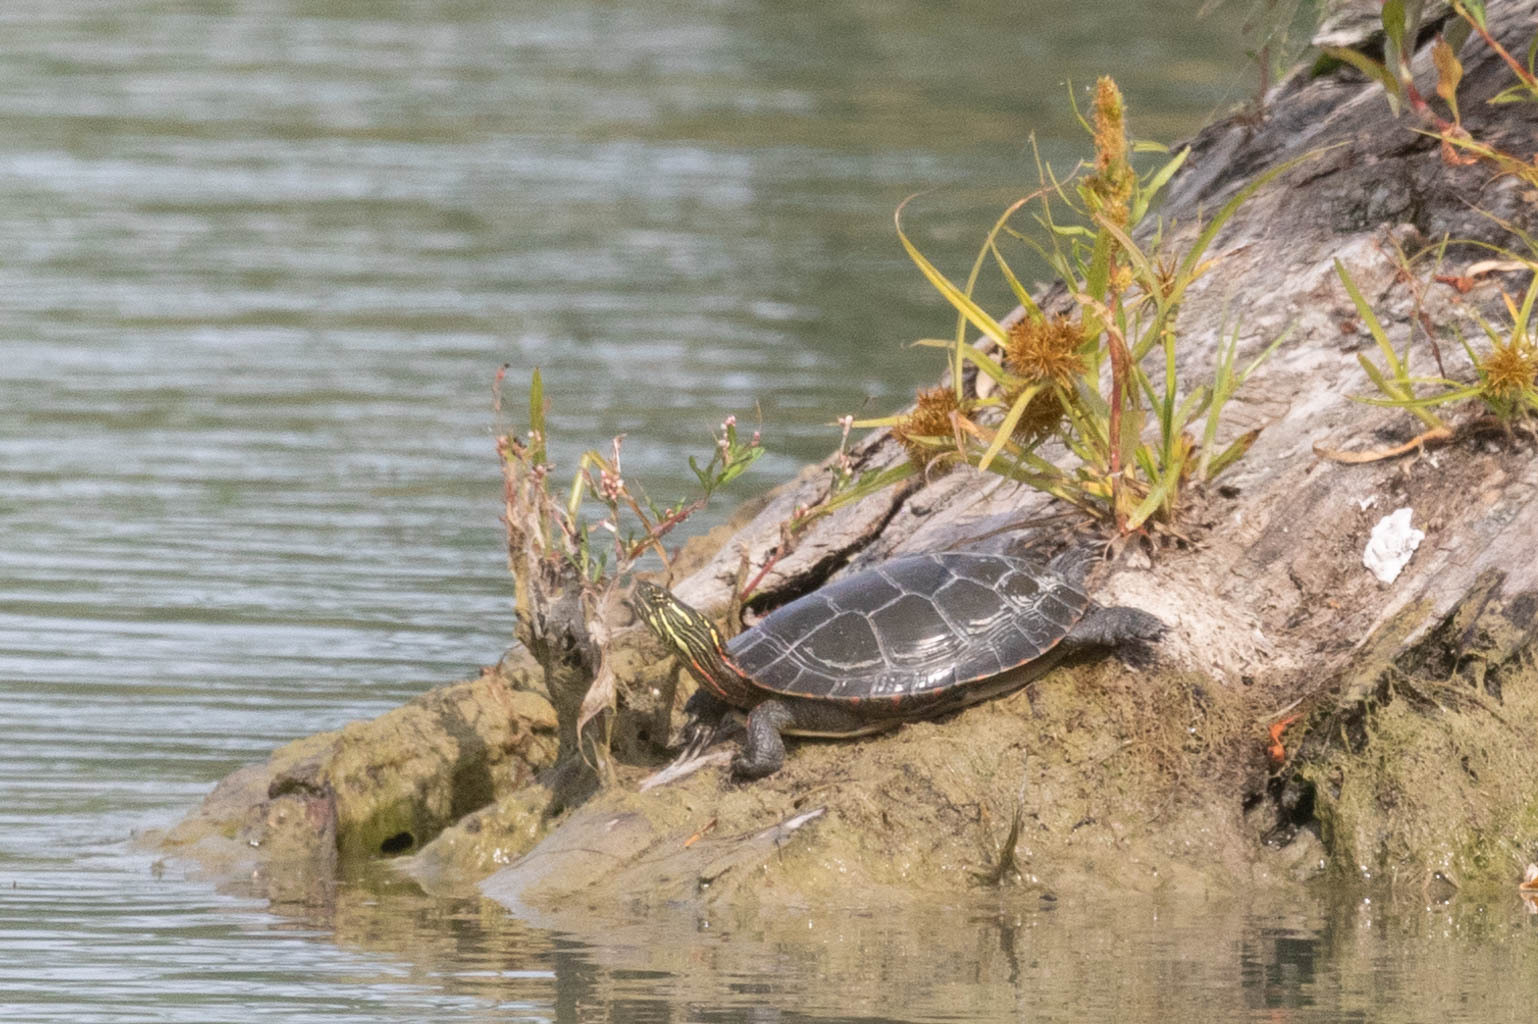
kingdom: Animalia
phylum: Chordata
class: Testudines
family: Emydidae
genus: Chrysemys
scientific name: Chrysemys picta
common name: Painted turtle
